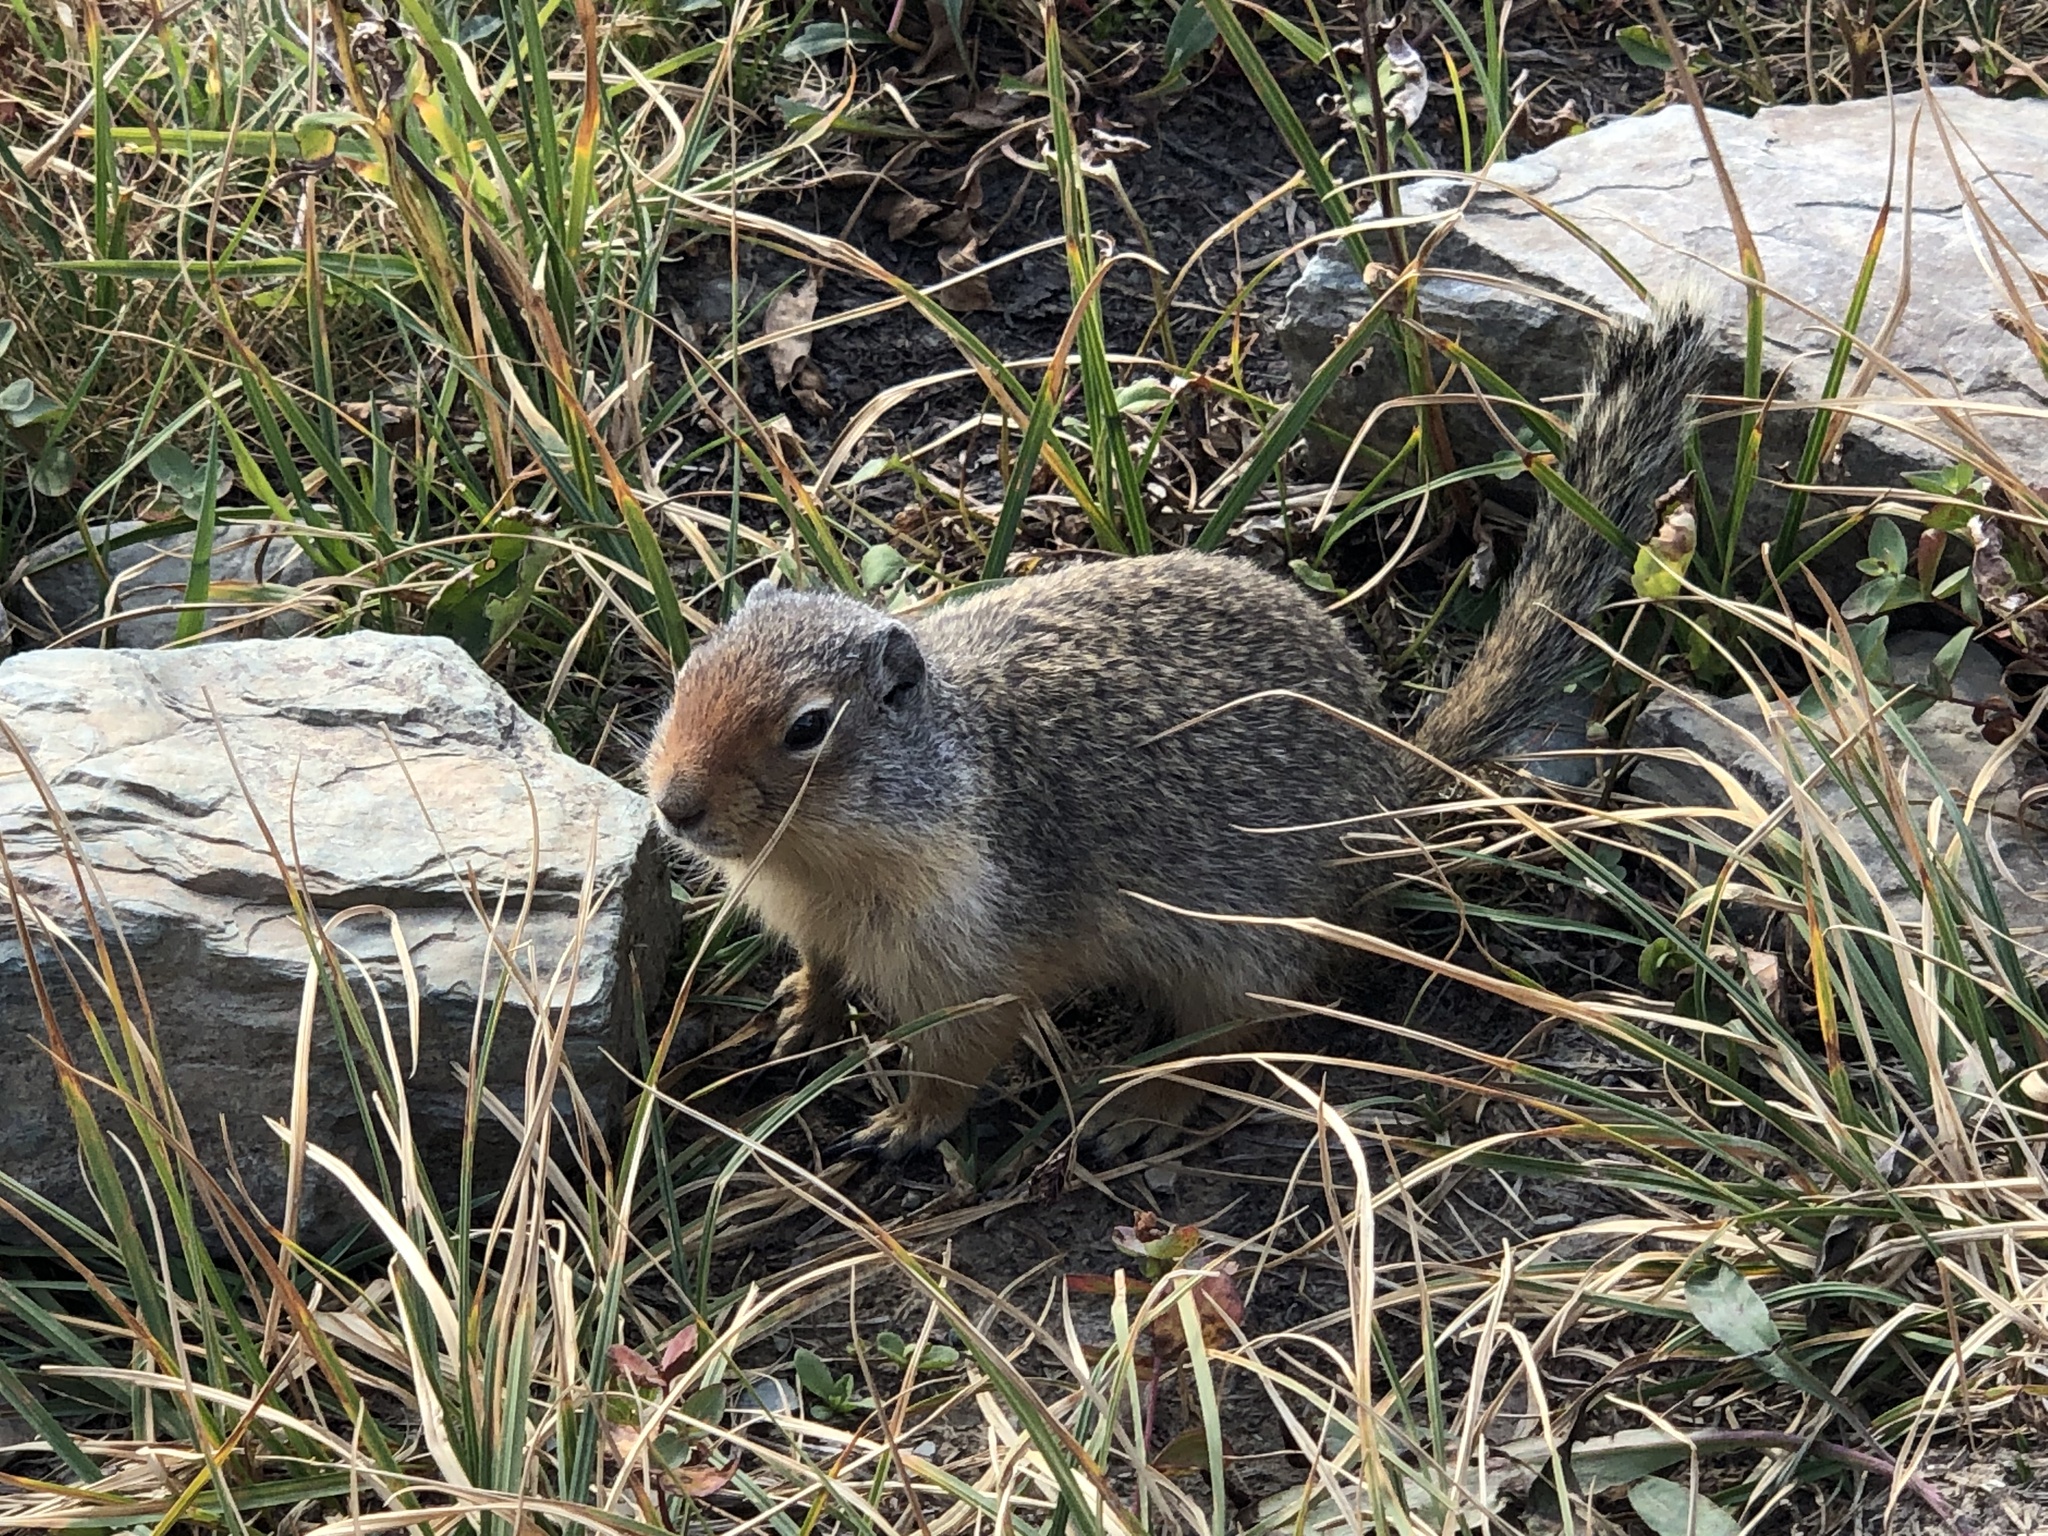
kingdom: Animalia
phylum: Chordata
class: Mammalia
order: Rodentia
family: Sciuridae
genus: Urocitellus
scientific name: Urocitellus columbianus
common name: Columbian ground squirrel
